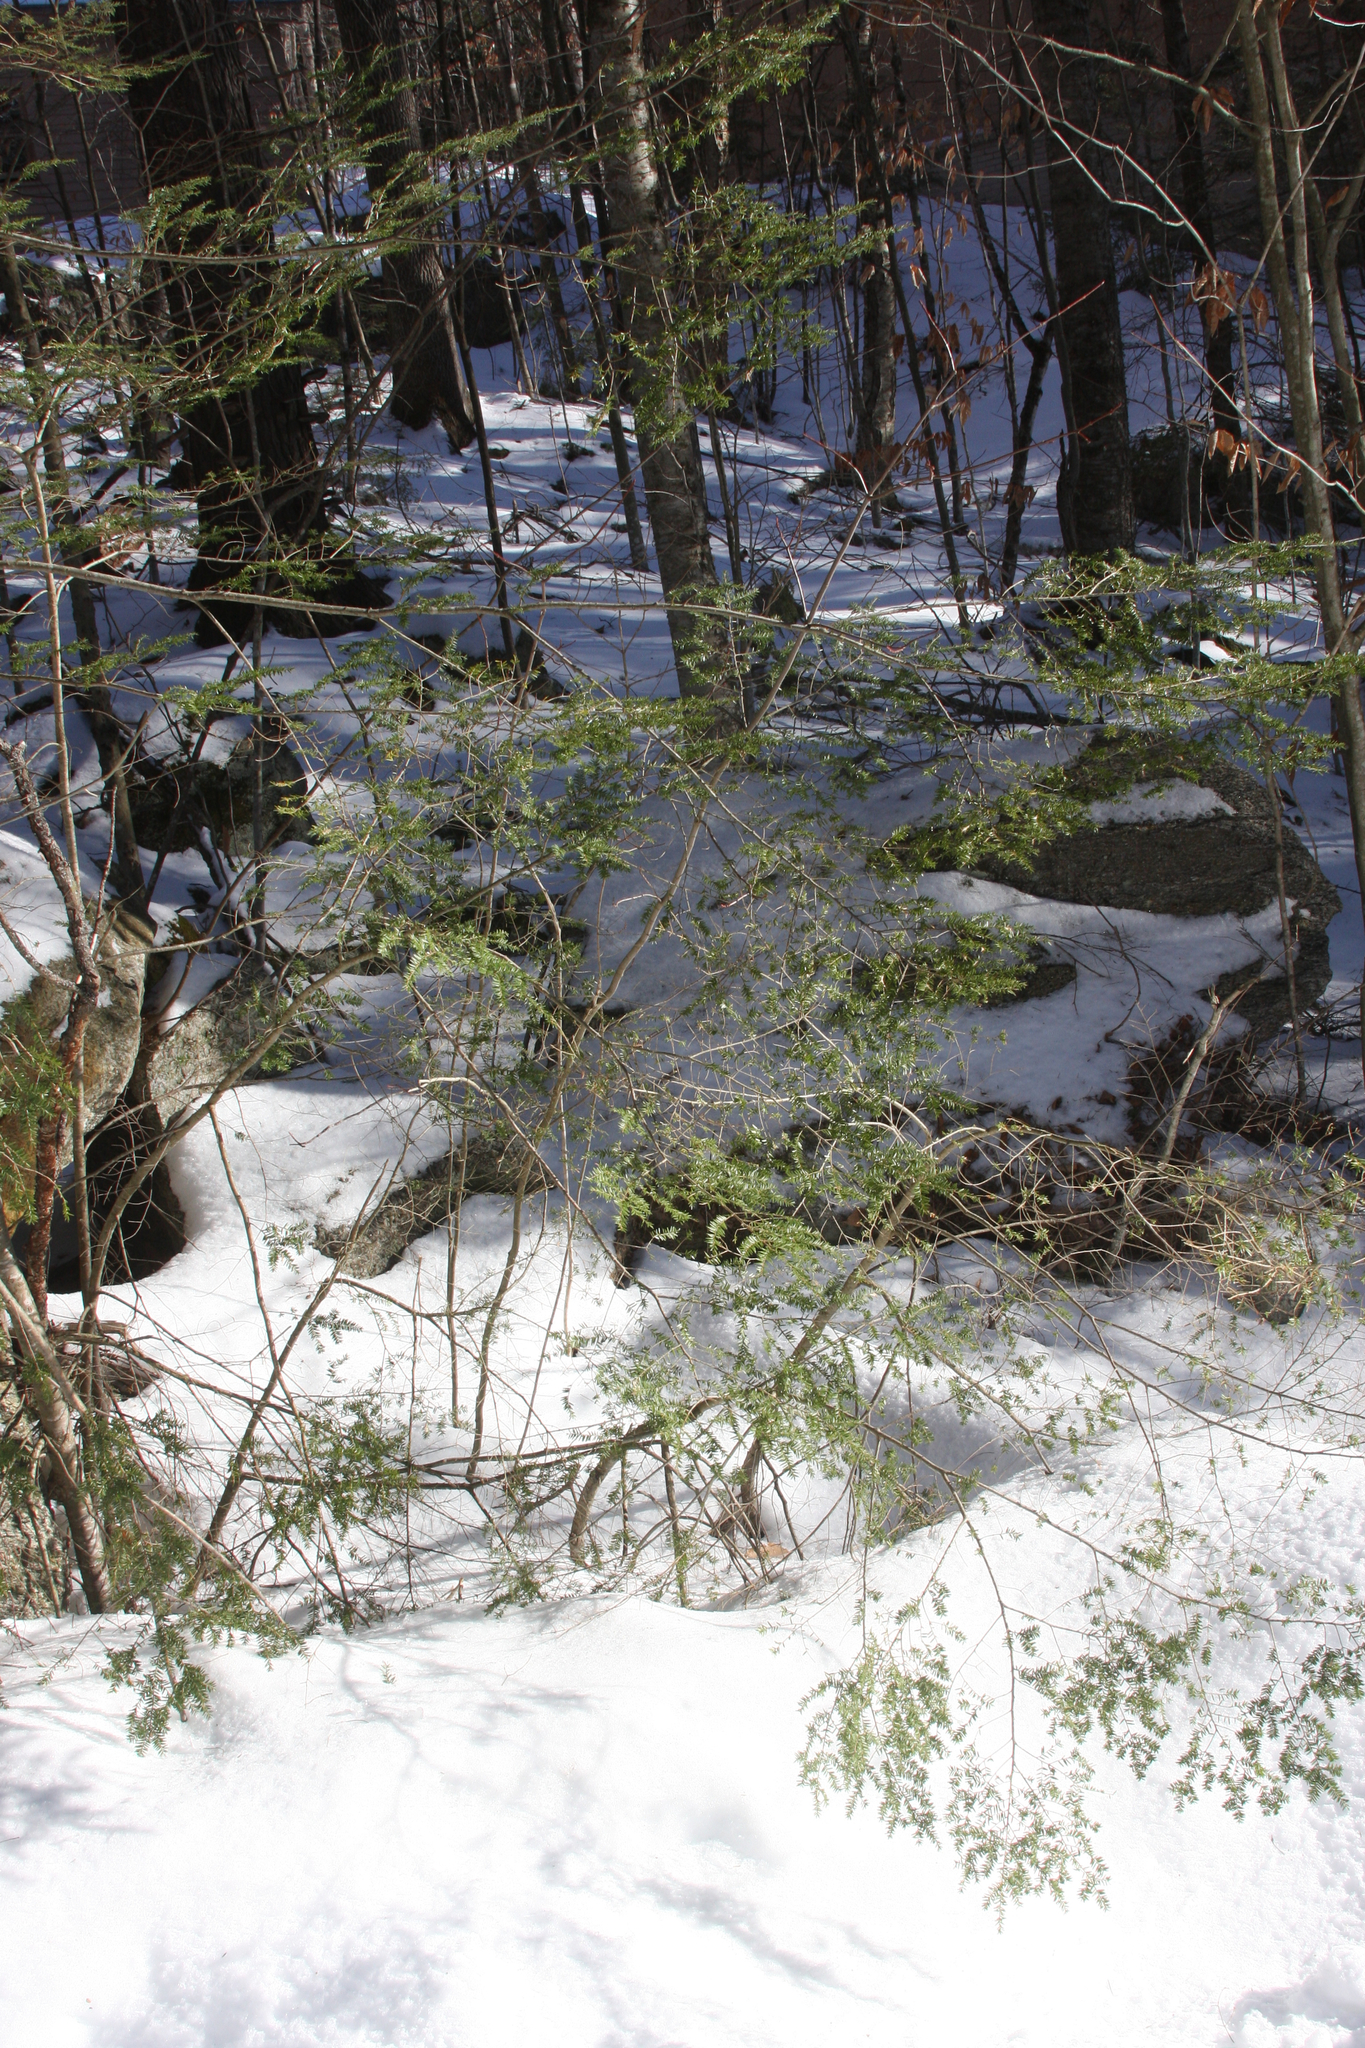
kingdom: Plantae
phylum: Tracheophyta
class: Pinopsida
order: Pinales
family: Pinaceae
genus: Tsuga
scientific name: Tsuga canadensis
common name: Eastern hemlock
